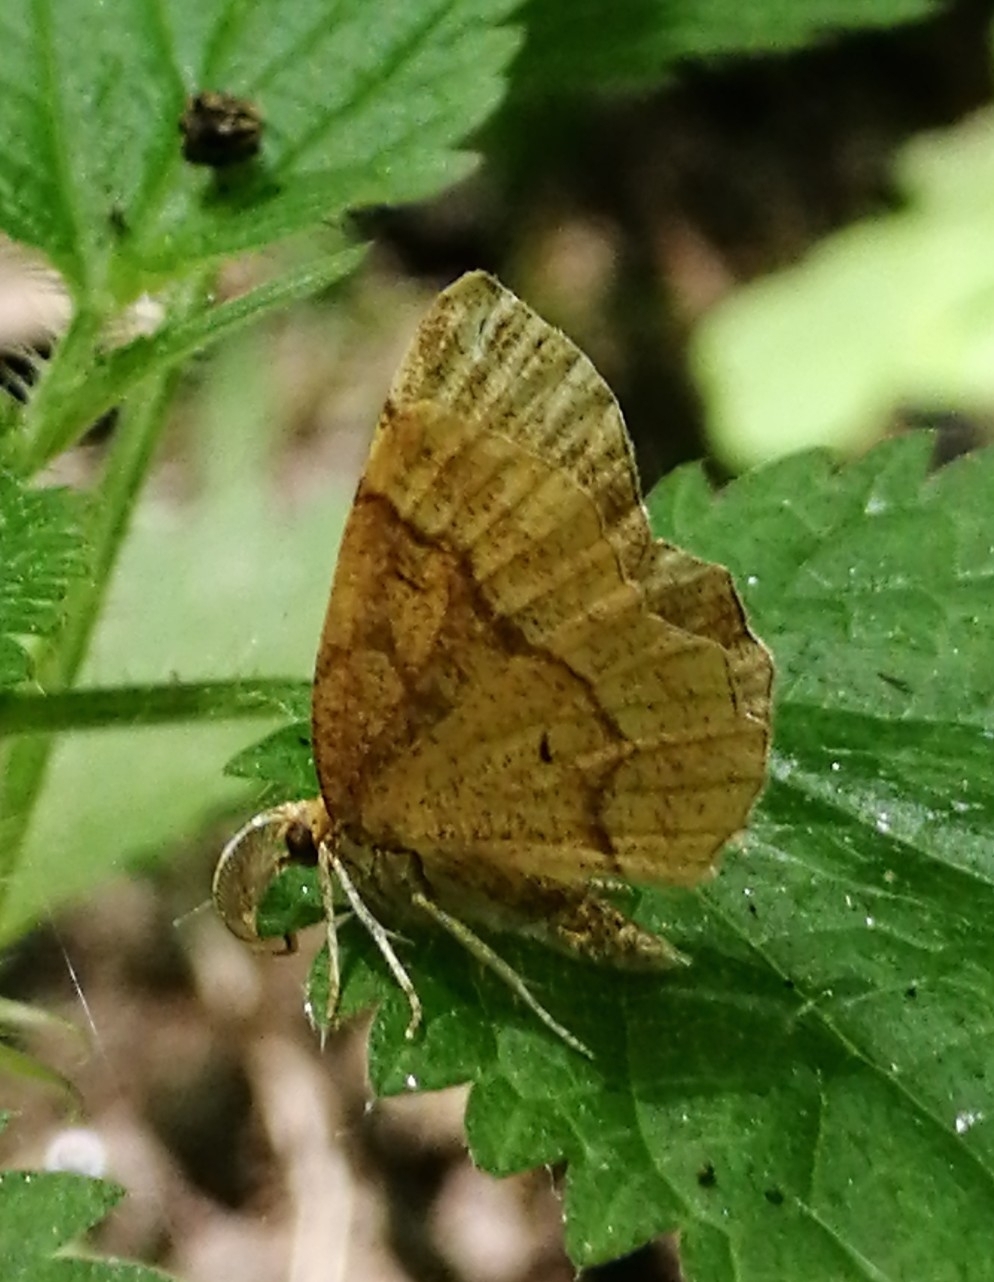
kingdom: Animalia
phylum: Arthropoda
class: Insecta
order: Lepidoptera
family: Geometridae
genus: Cepphis
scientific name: Cepphis advenaria
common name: Little thorn
